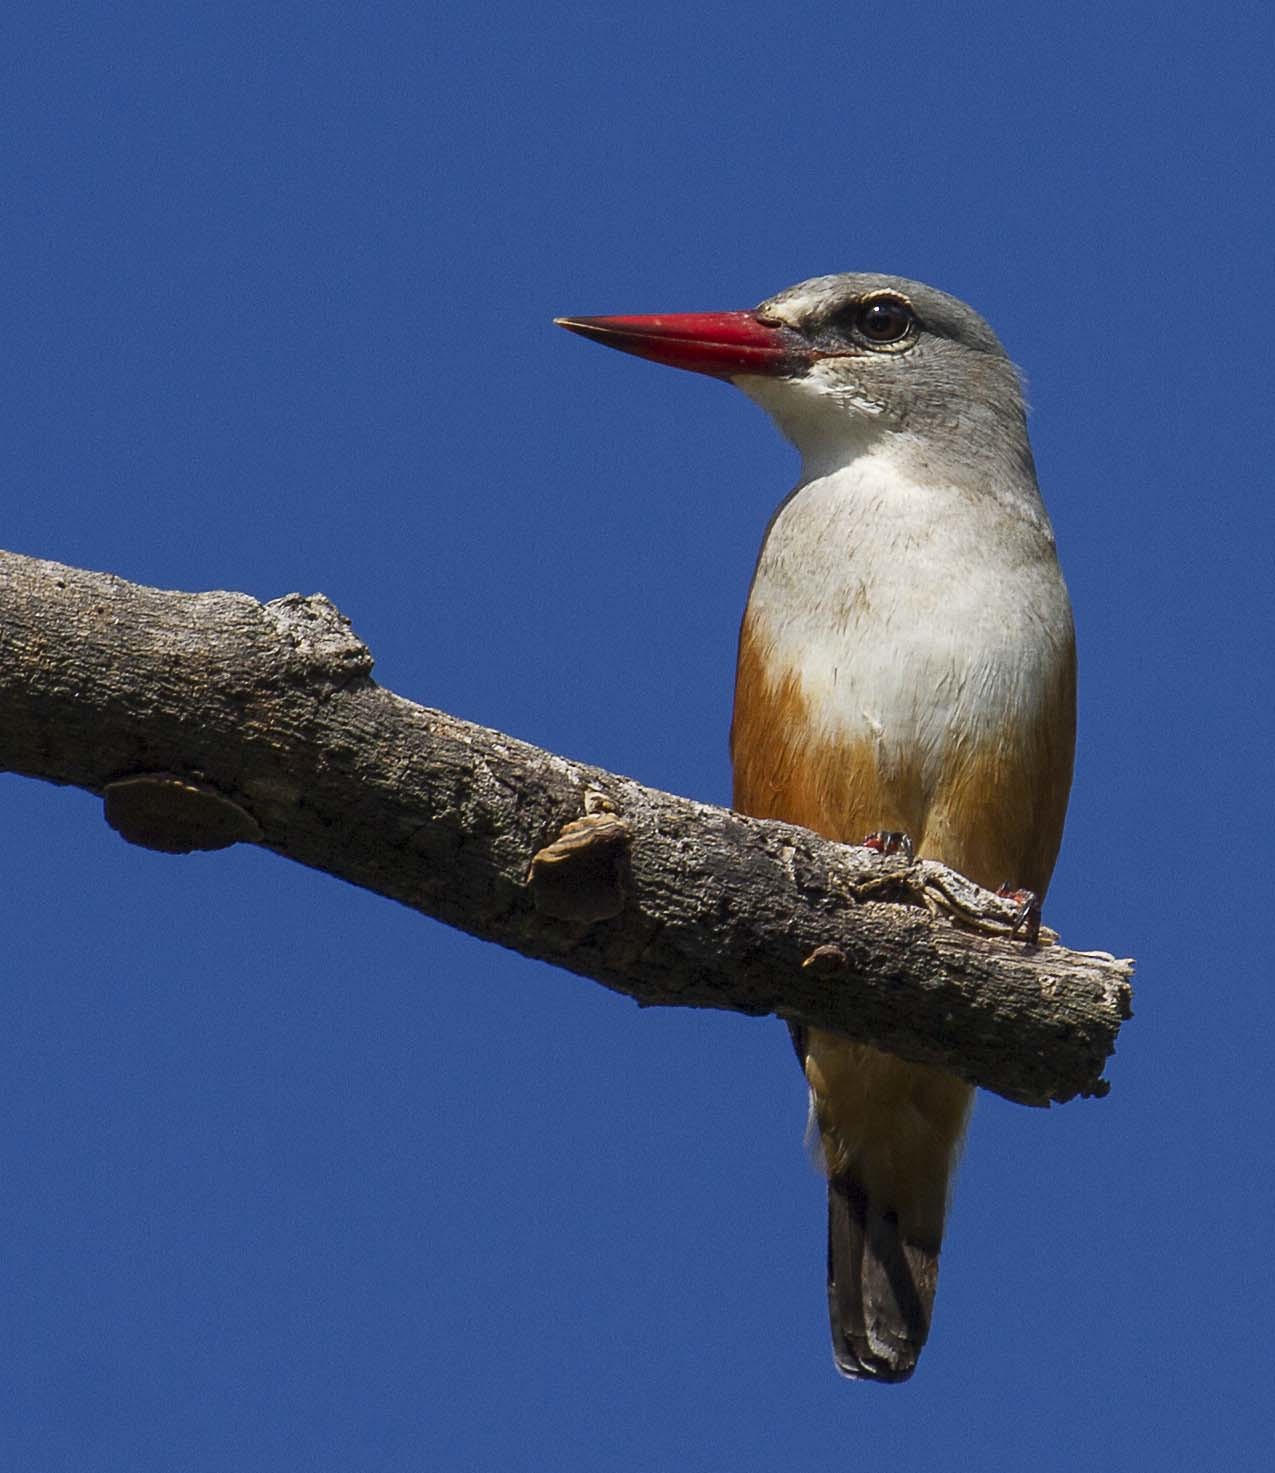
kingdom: Animalia
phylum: Chordata
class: Aves
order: Coraciiformes
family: Alcedinidae
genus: Halcyon
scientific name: Halcyon leucocephala
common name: Grey-headed kingfisher
